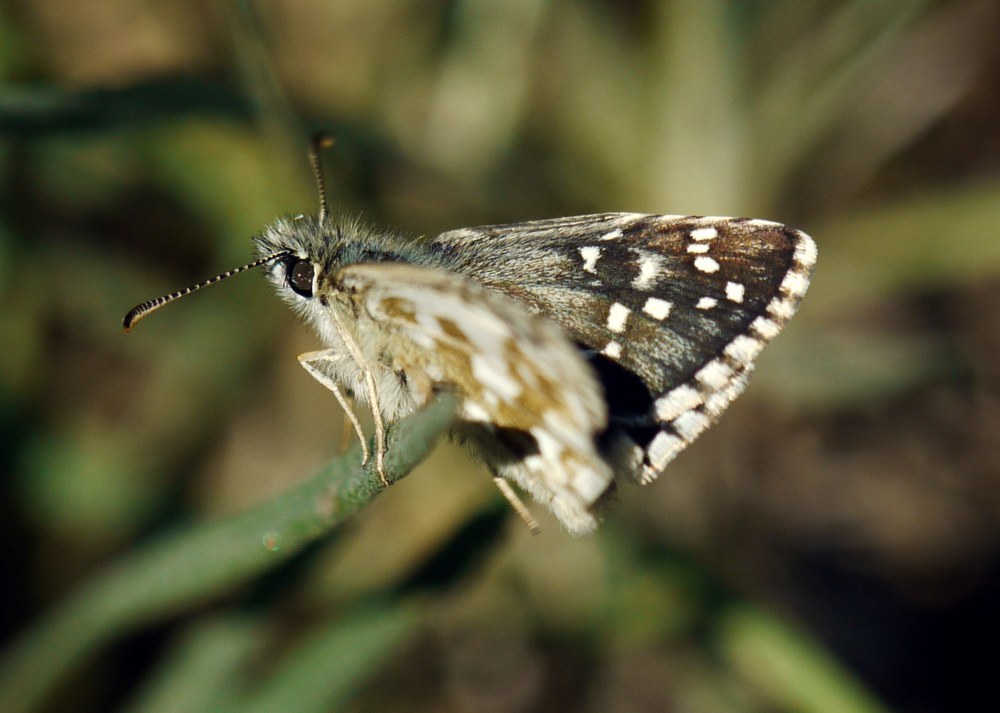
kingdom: Animalia
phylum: Arthropoda
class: Insecta
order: Lepidoptera
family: Hesperiidae
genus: Pyrgus
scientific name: Pyrgus armoricanus
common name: Oberthür's grizzled skipper
